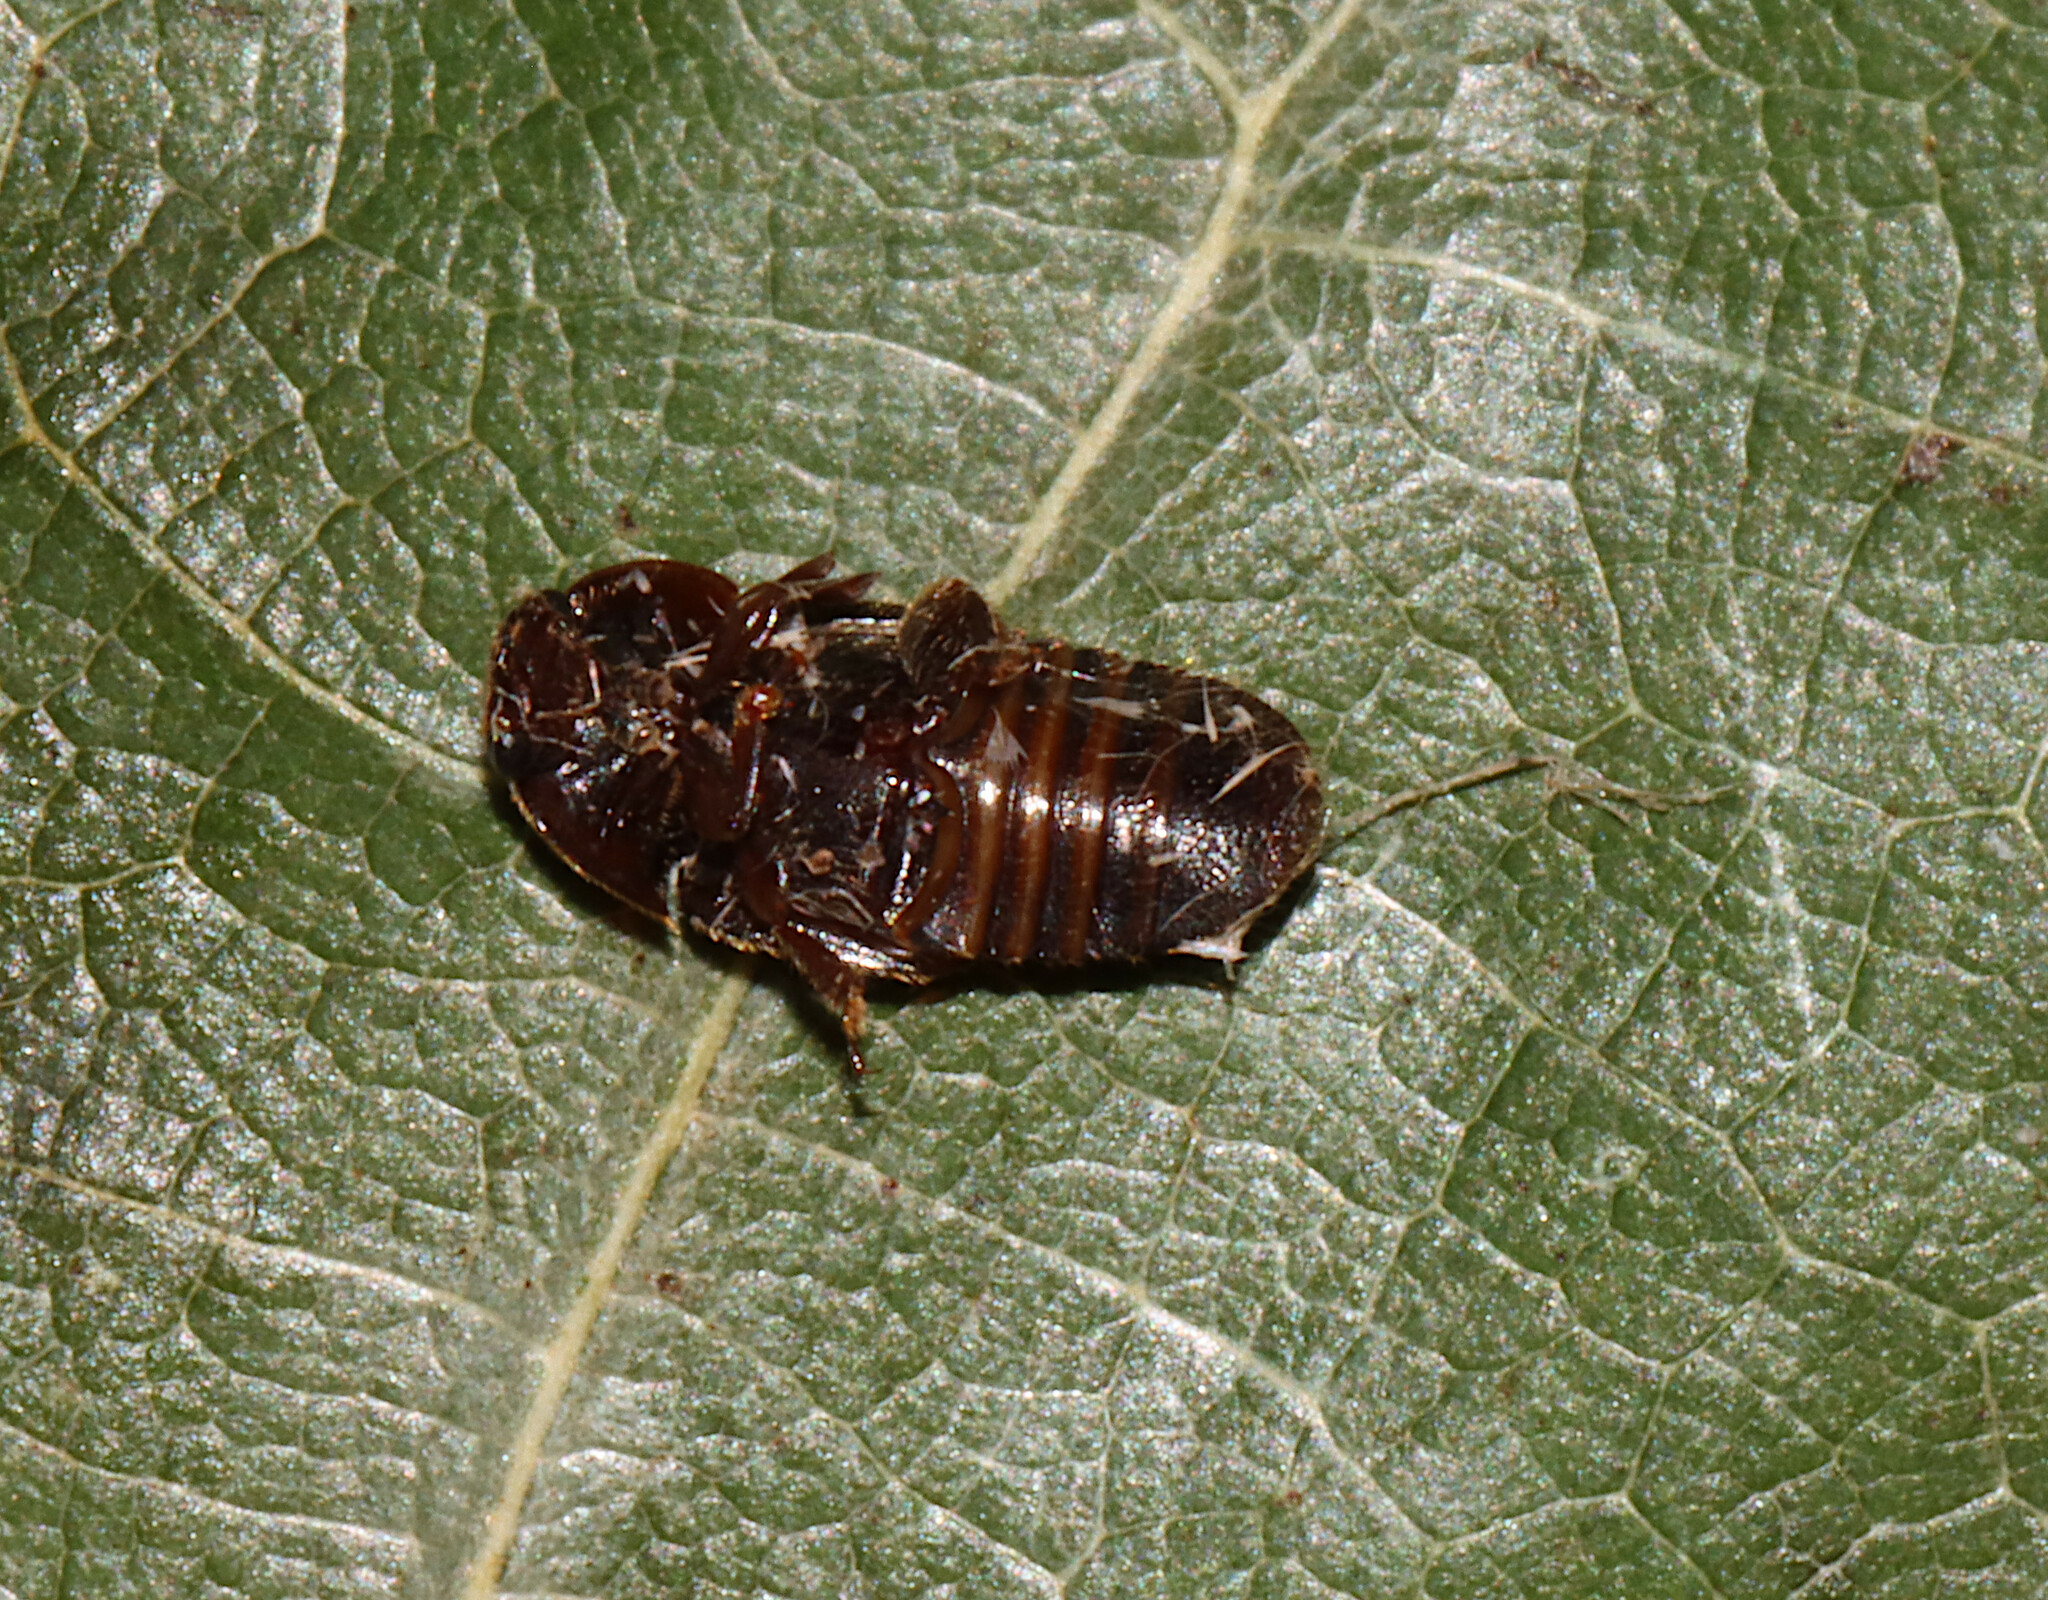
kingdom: Animalia
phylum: Arthropoda
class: Insecta
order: Coleoptera
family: Nitidulidae
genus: Colopterus
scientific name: Colopterus maculatus
